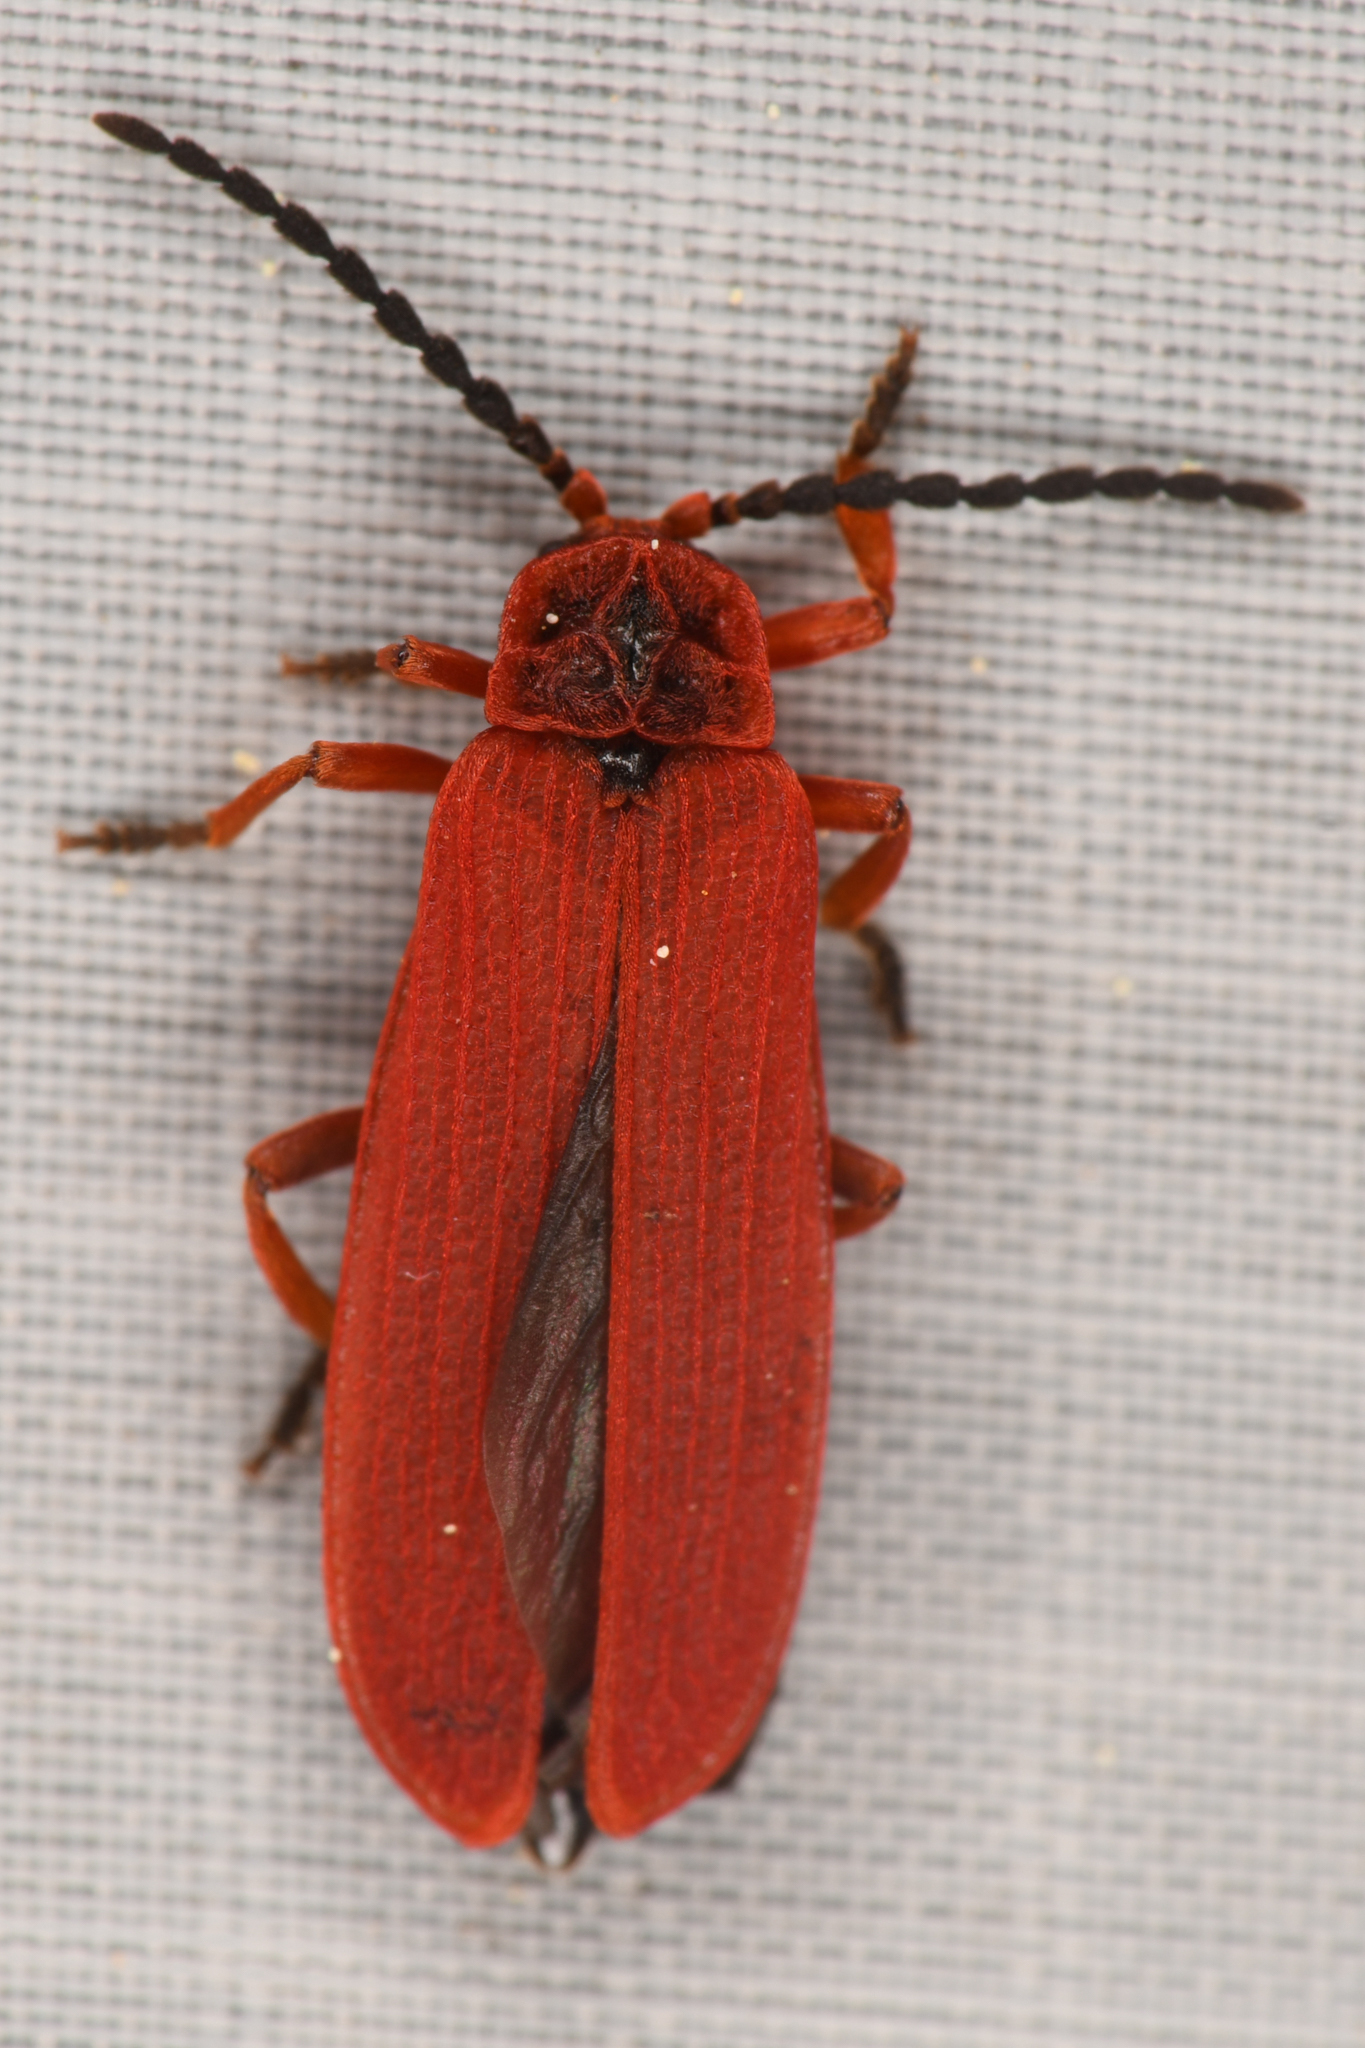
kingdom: Animalia
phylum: Arthropoda
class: Insecta
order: Coleoptera
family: Lycidae
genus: Dictyoptera
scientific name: Dictyoptera simplicipes
